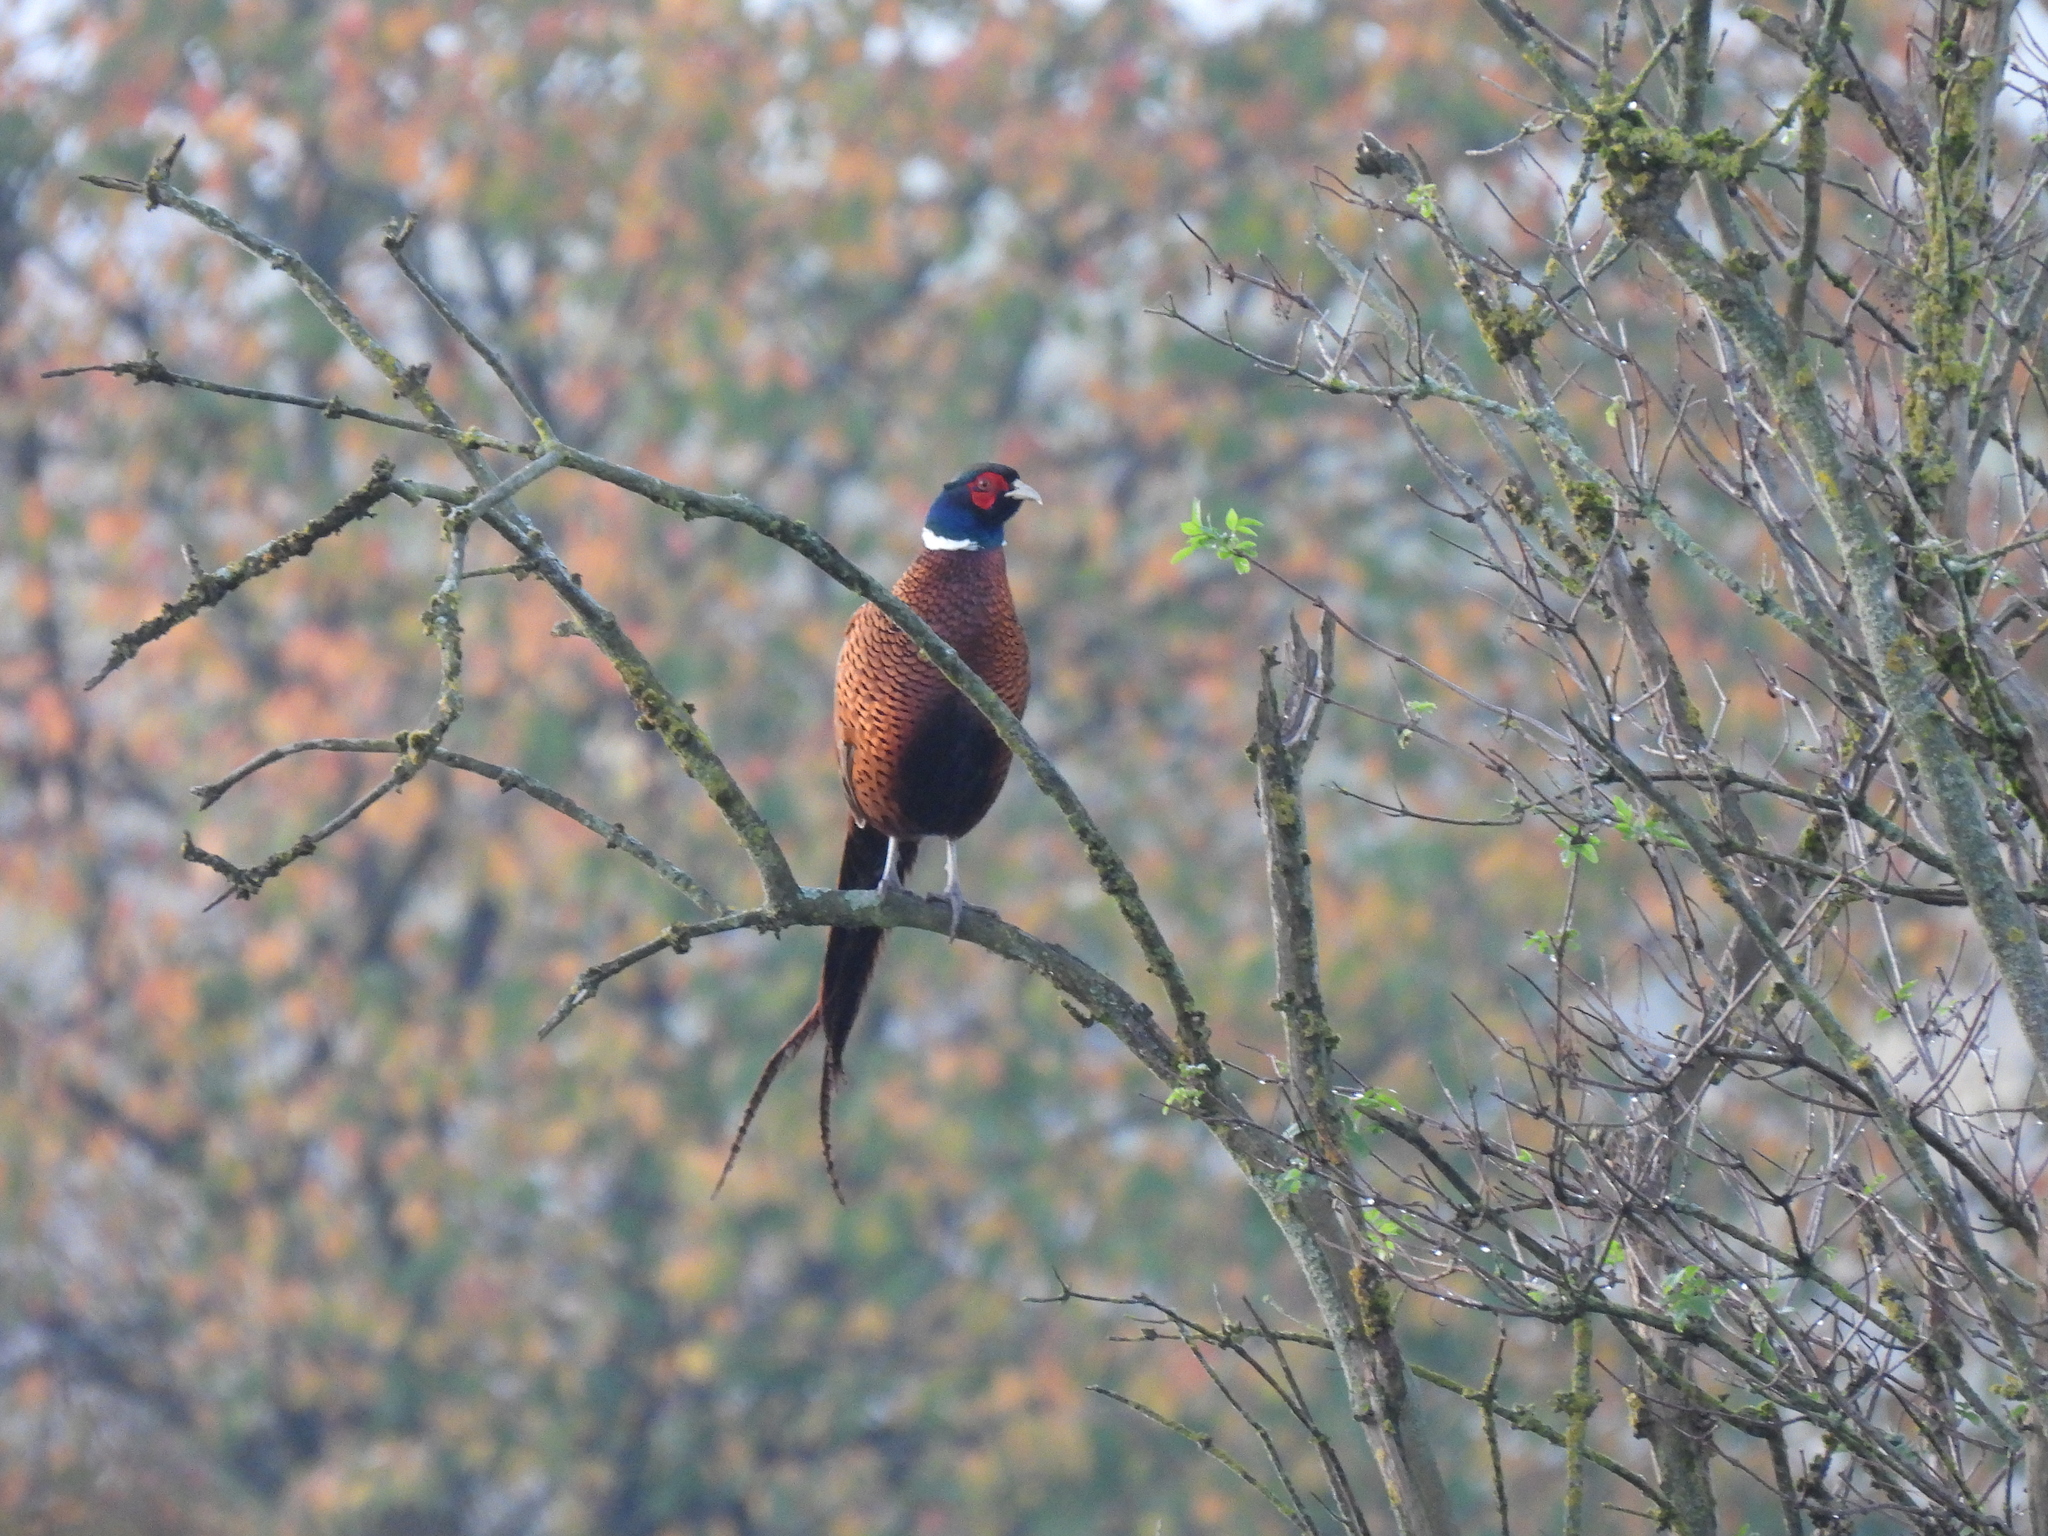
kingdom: Animalia
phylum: Chordata
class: Aves
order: Galliformes
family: Phasianidae
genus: Phasianus
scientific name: Phasianus colchicus
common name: Common pheasant
